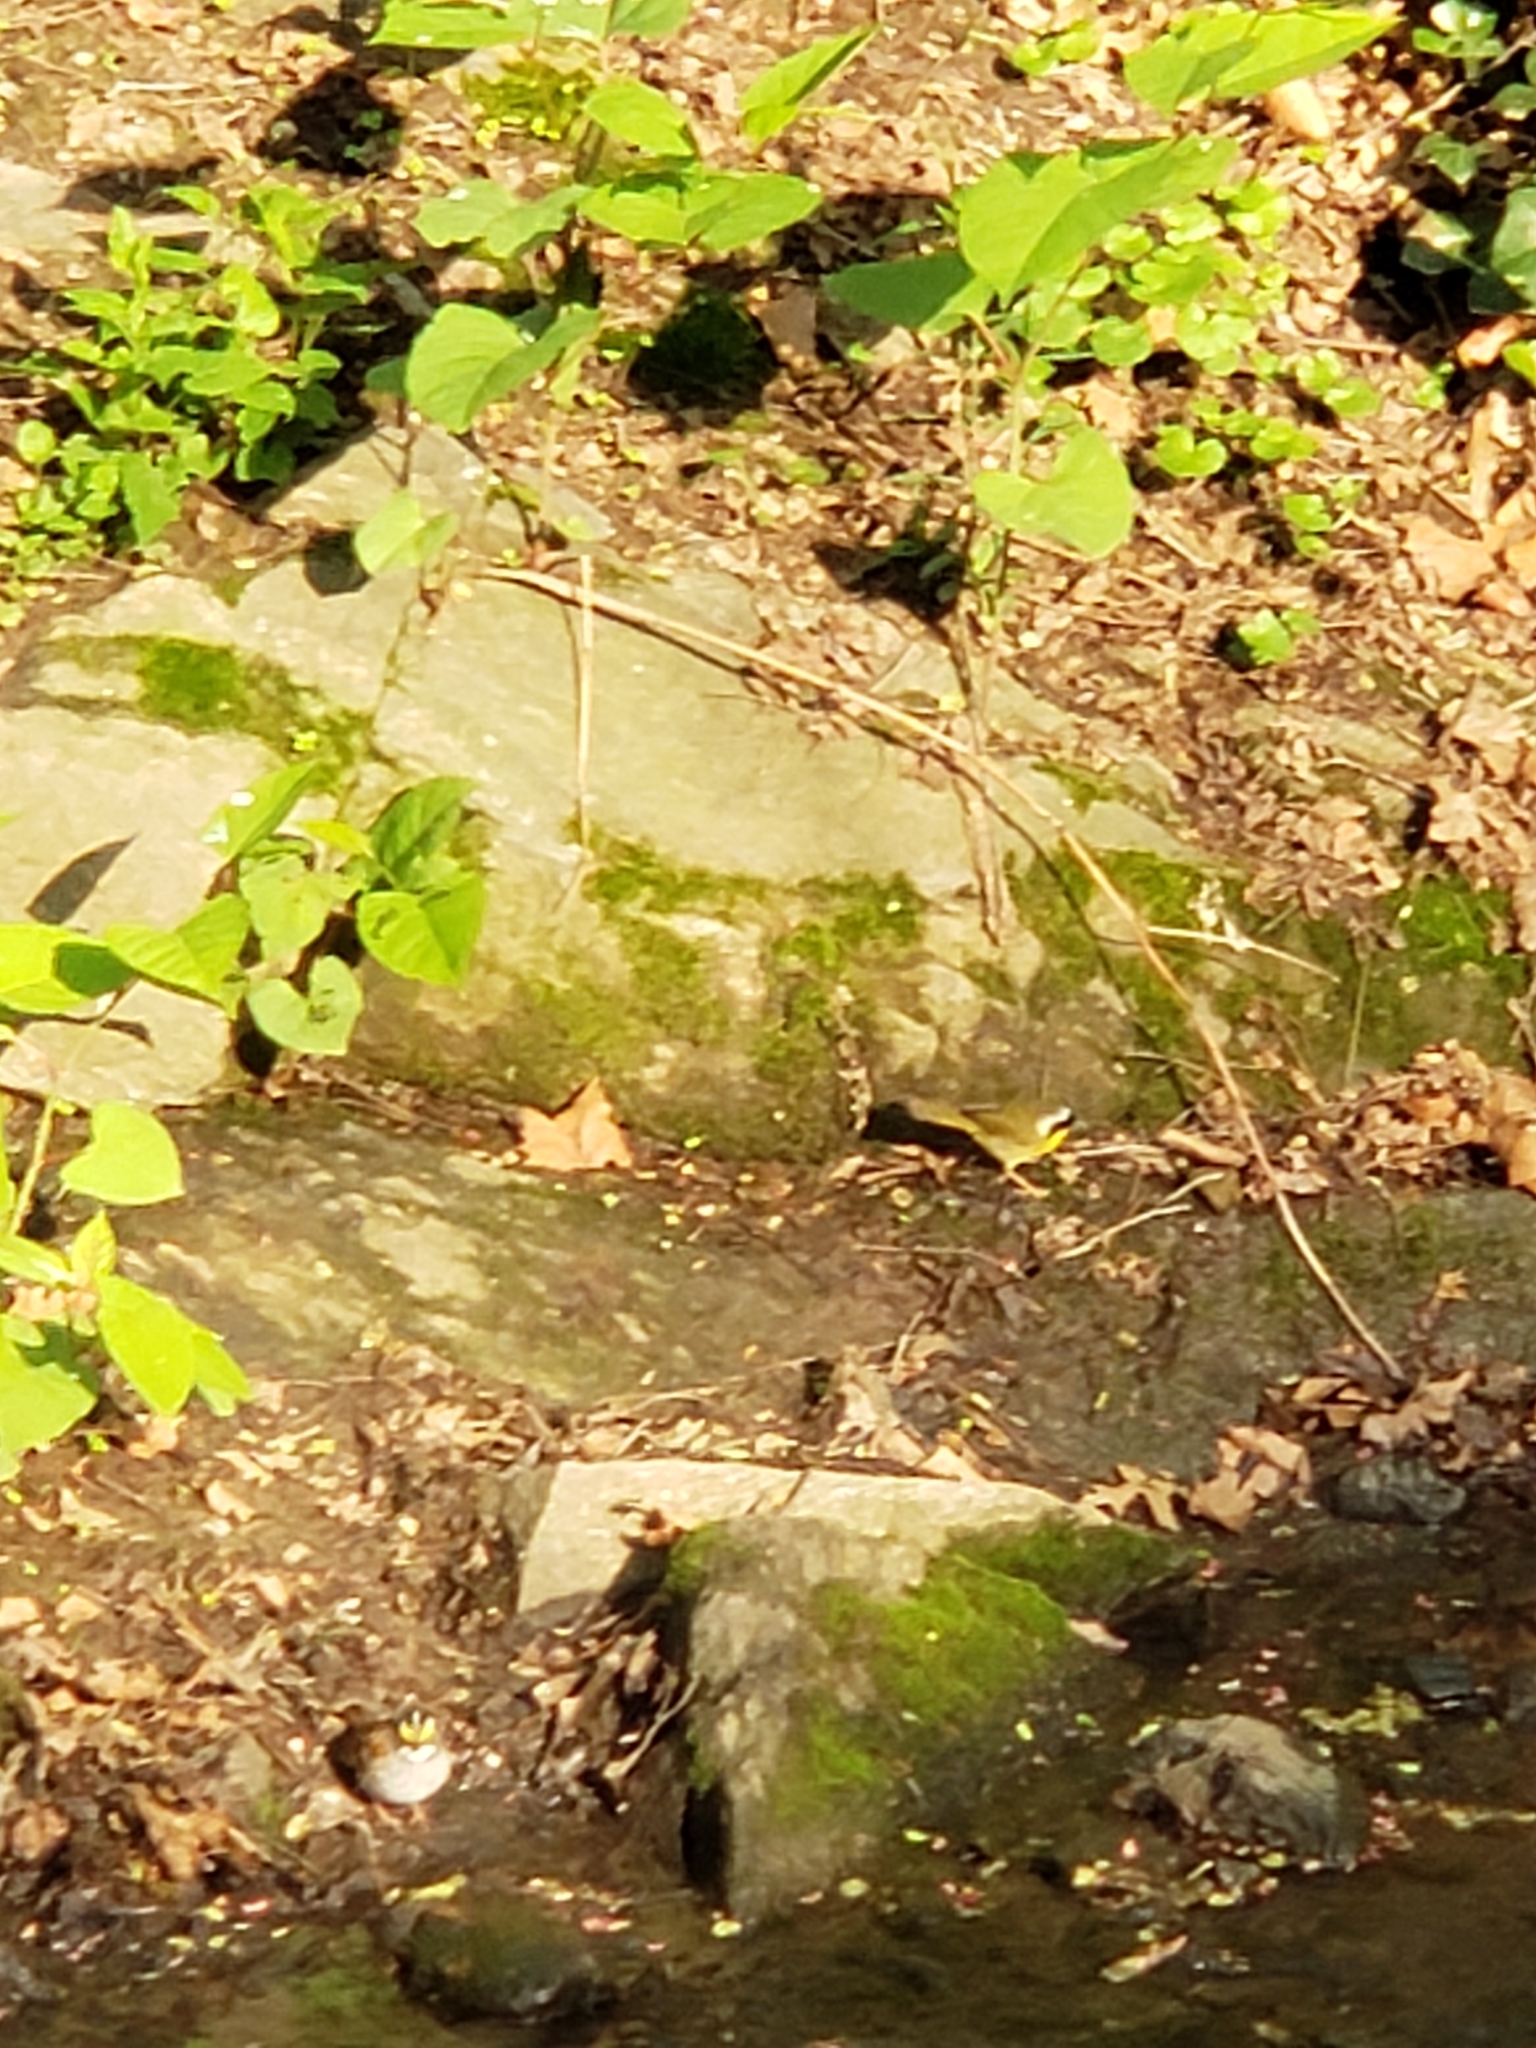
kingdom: Animalia
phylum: Chordata
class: Aves
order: Passeriformes
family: Parulidae
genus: Geothlypis
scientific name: Geothlypis trichas
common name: Common yellowthroat
